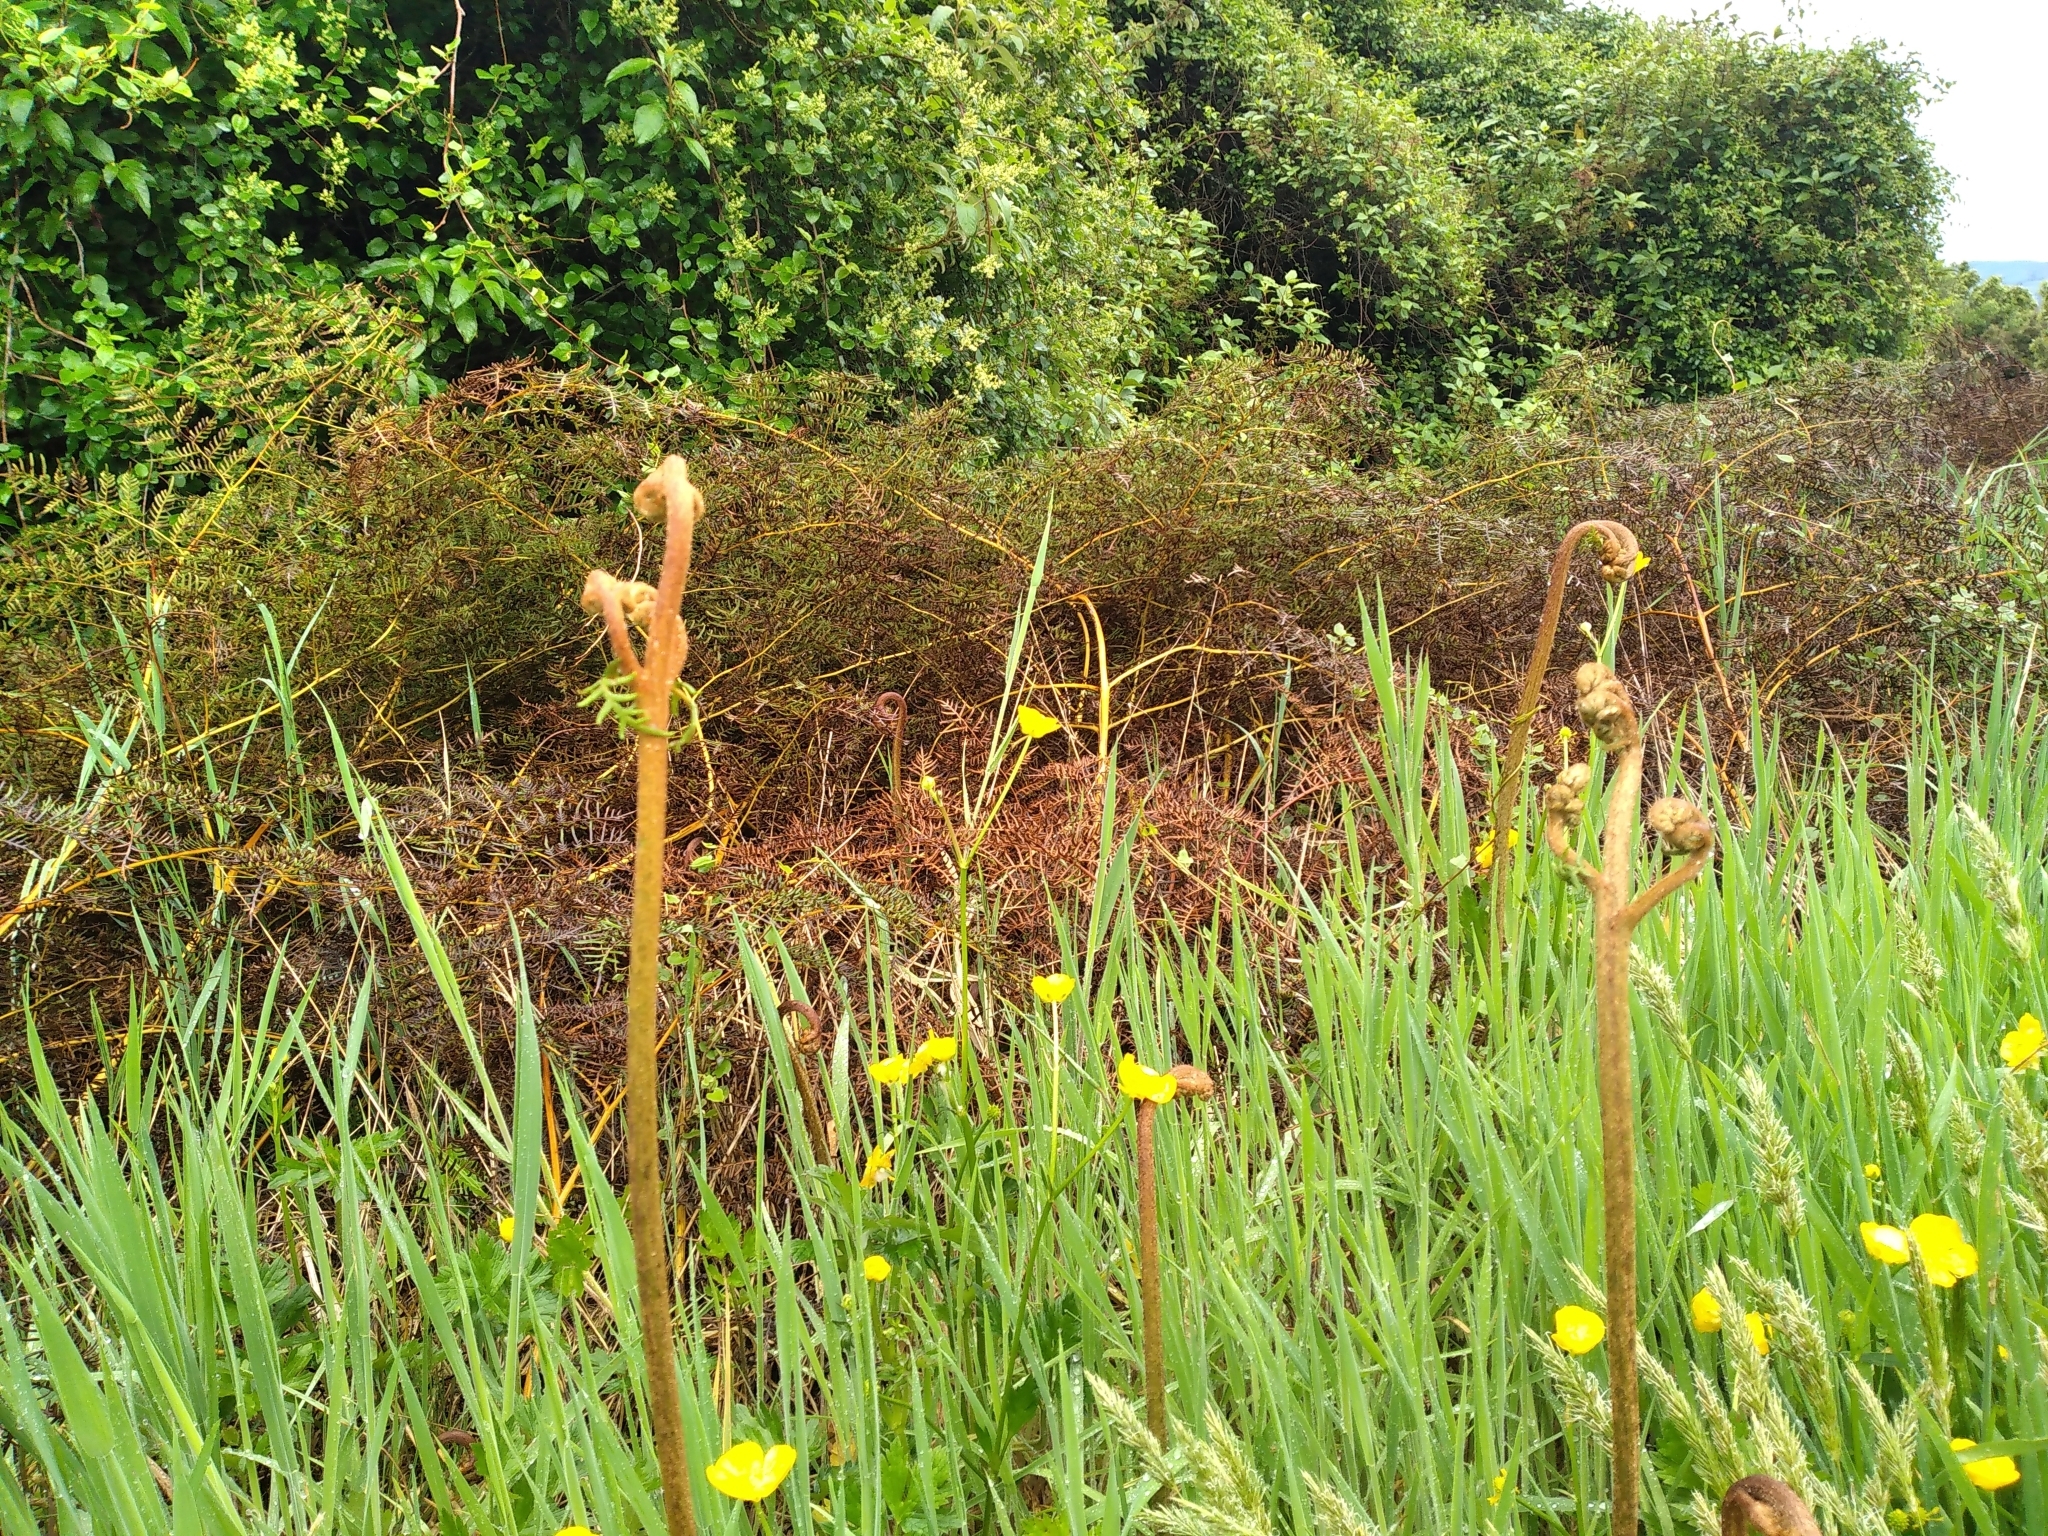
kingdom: Plantae
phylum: Tracheophyta
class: Polypodiopsida
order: Polypodiales
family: Dennstaedtiaceae
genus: Pteridium
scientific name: Pteridium esculentum
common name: Bracken fern
